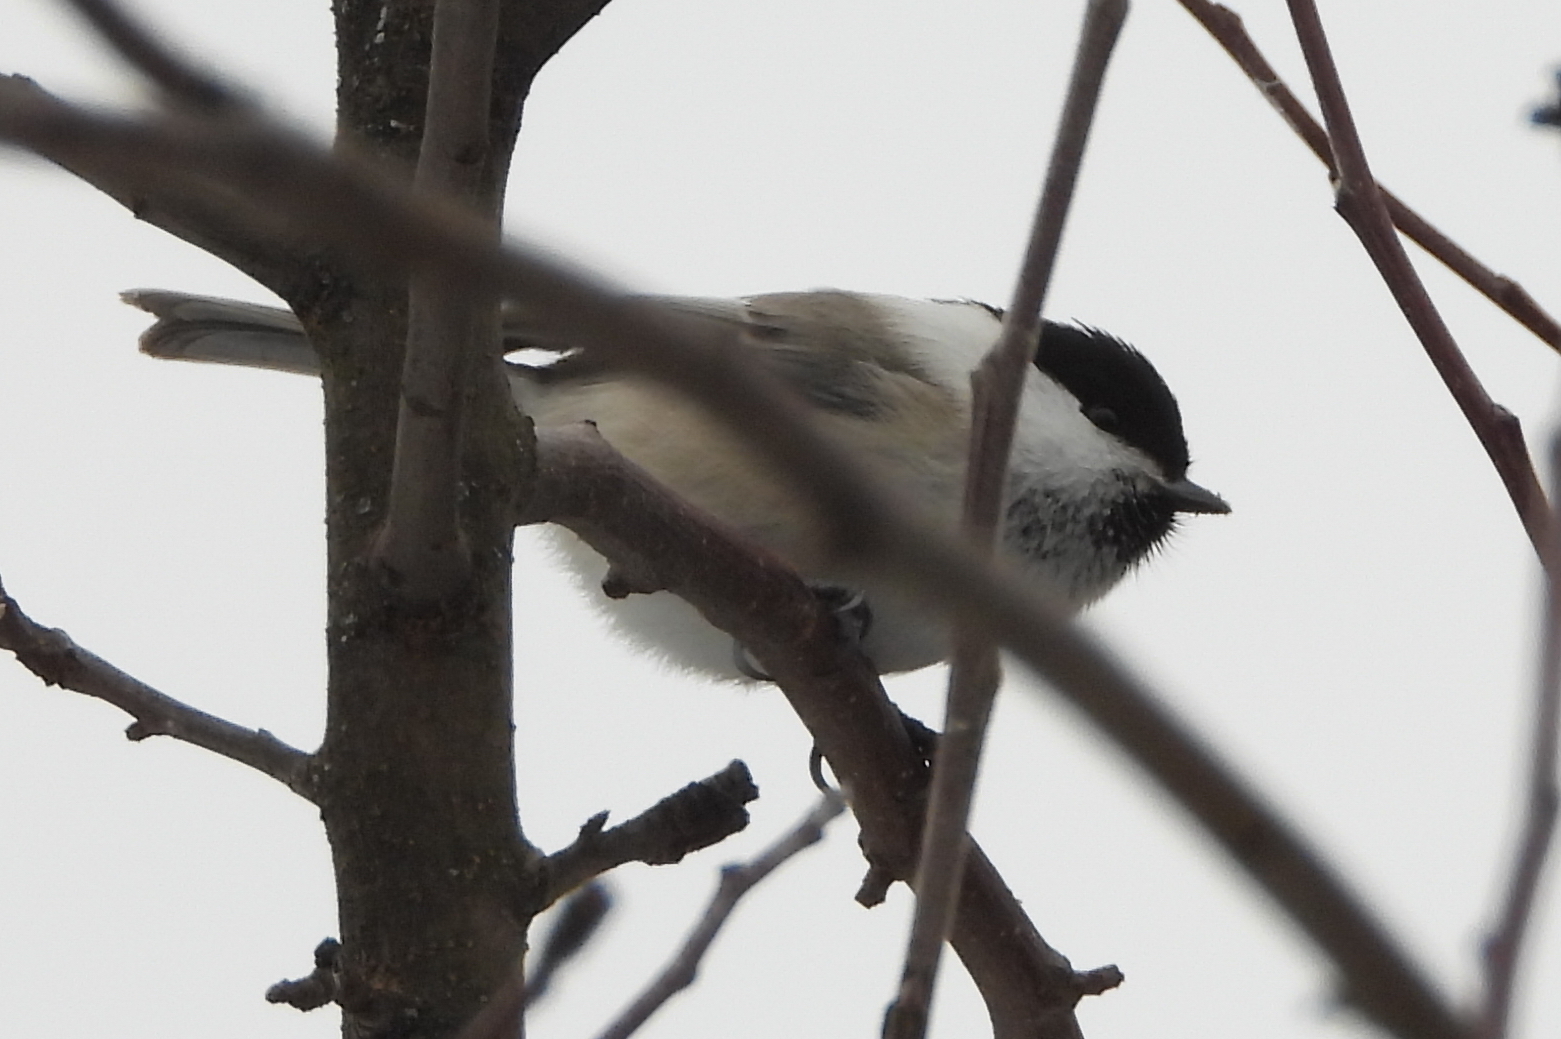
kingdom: Animalia
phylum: Chordata
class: Aves
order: Passeriformes
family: Paridae
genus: Poecile
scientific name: Poecile montanus
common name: Willow tit
